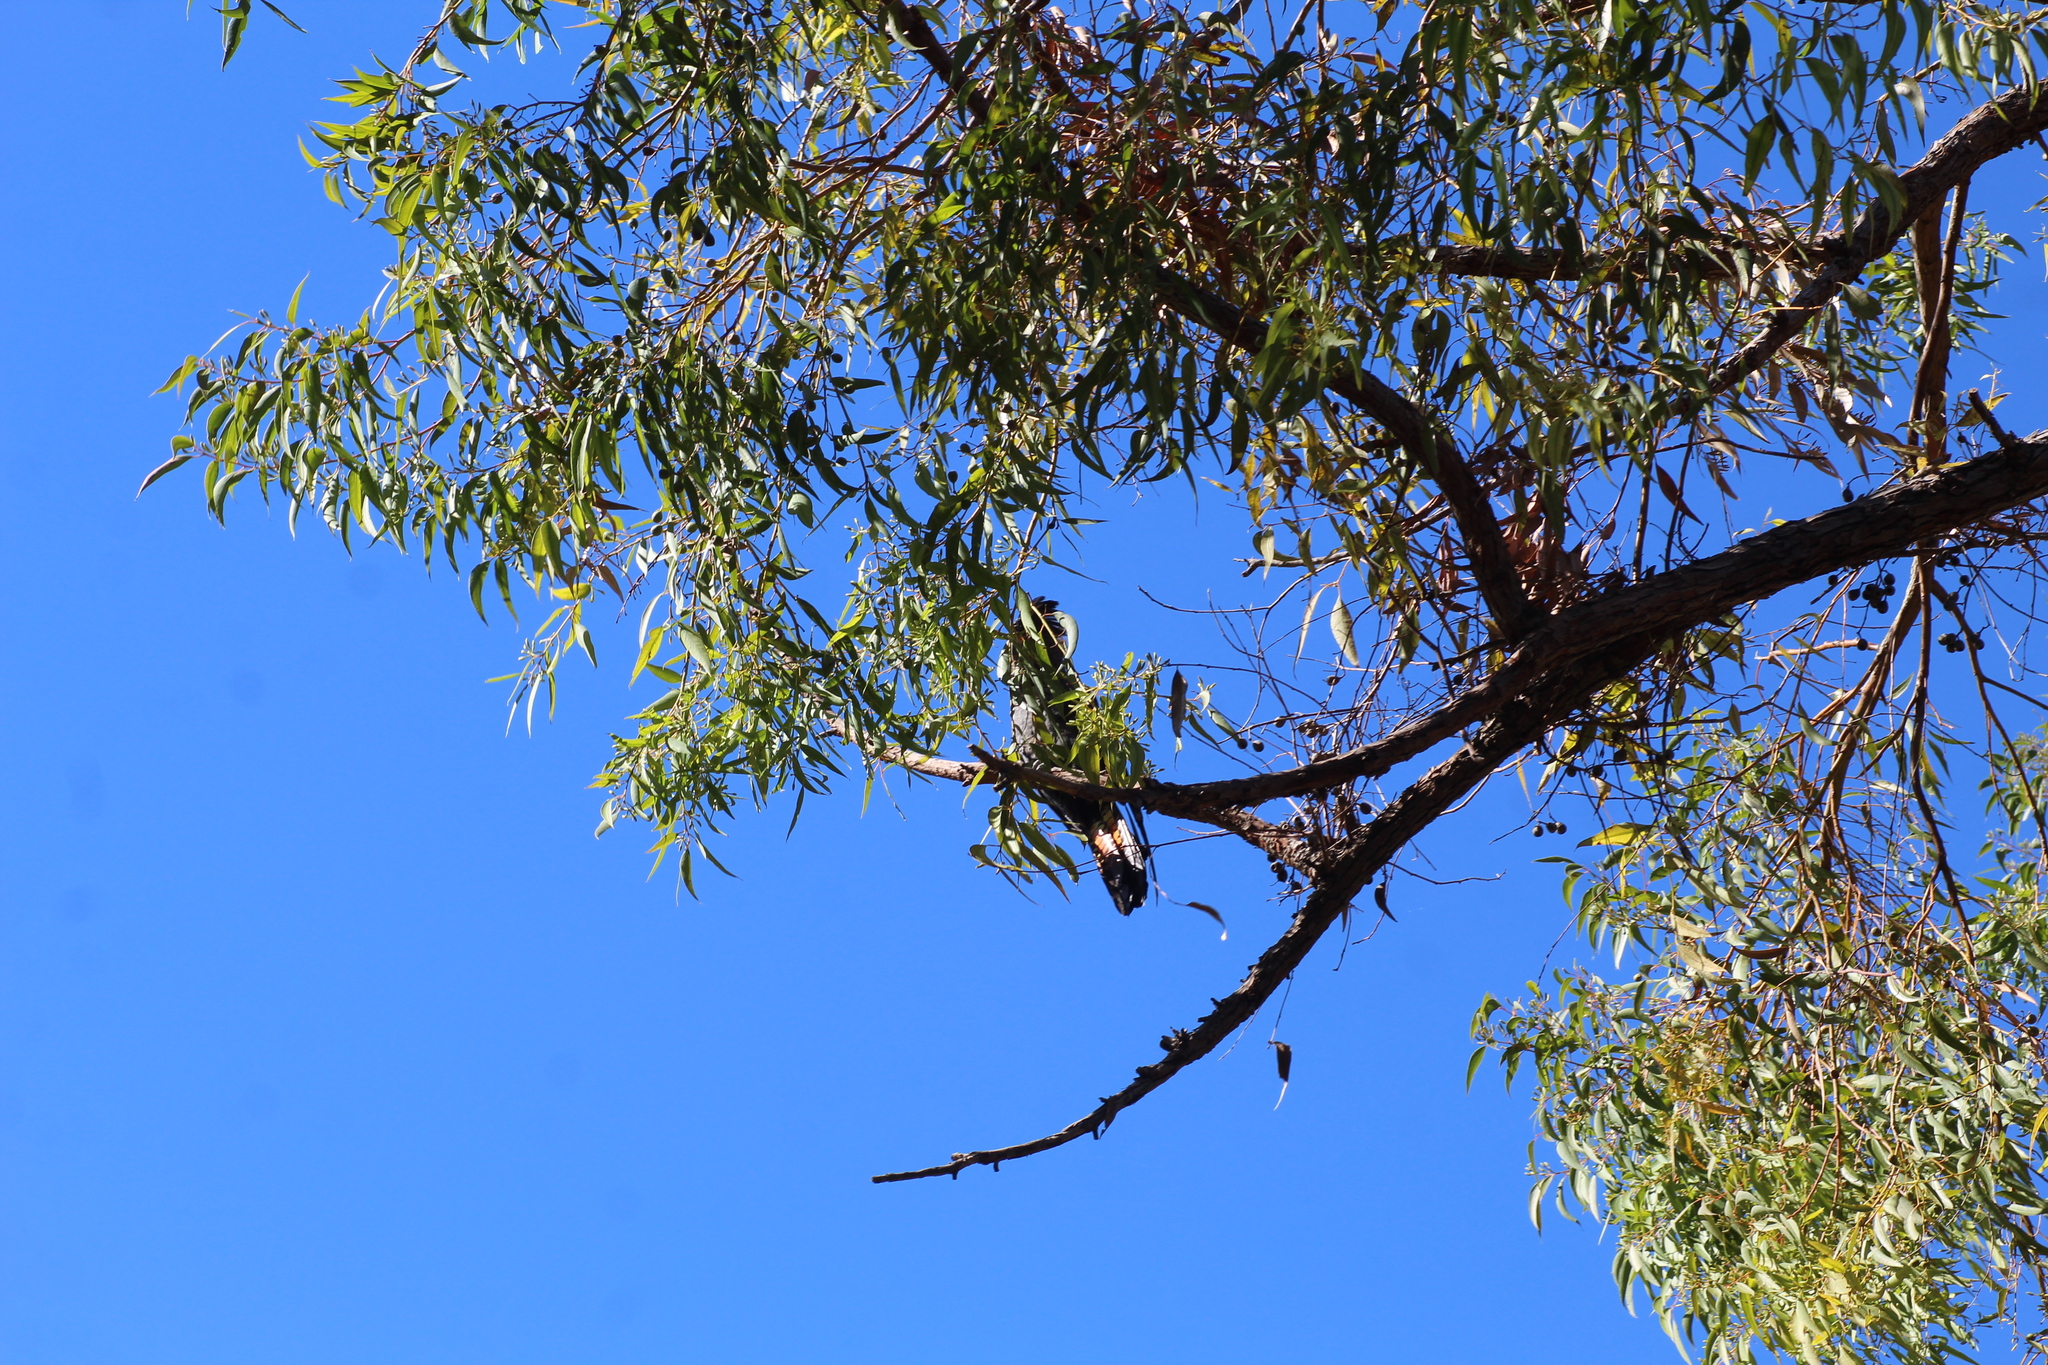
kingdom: Animalia
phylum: Chordata
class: Aves
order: Psittaciformes
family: Psittacidae
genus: Calyptorhynchus
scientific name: Calyptorhynchus banksii
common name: Red-tailed black cockatoo
